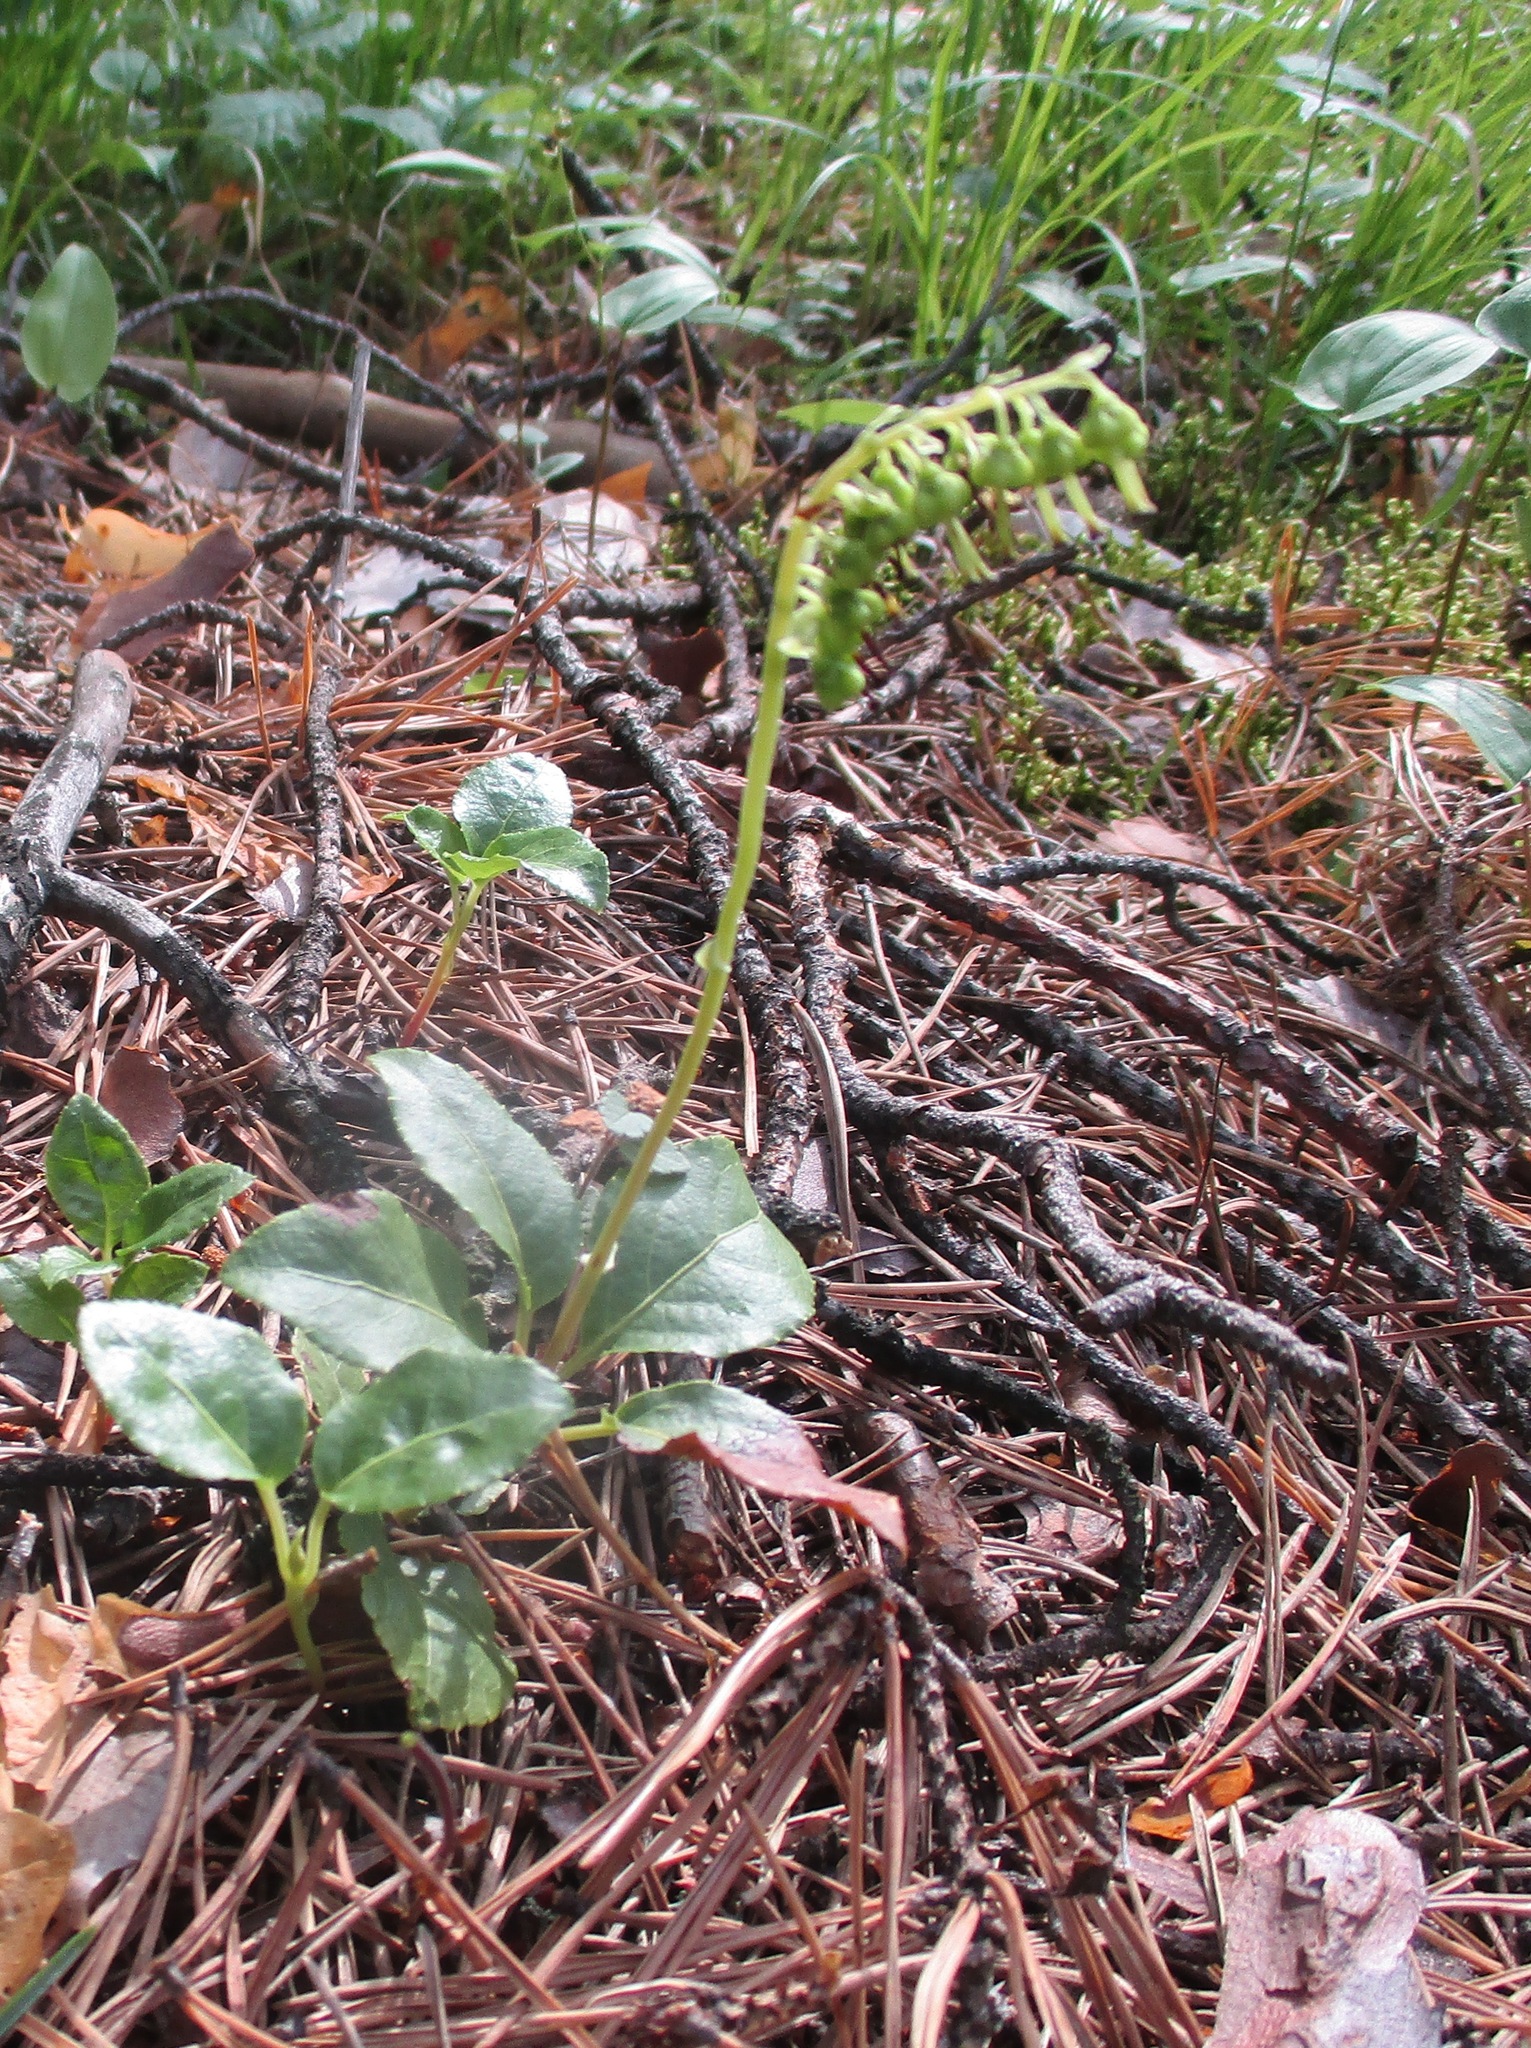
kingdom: Plantae
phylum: Tracheophyta
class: Magnoliopsida
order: Ericales
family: Ericaceae
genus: Orthilia
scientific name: Orthilia secunda
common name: One-sided orthilia
